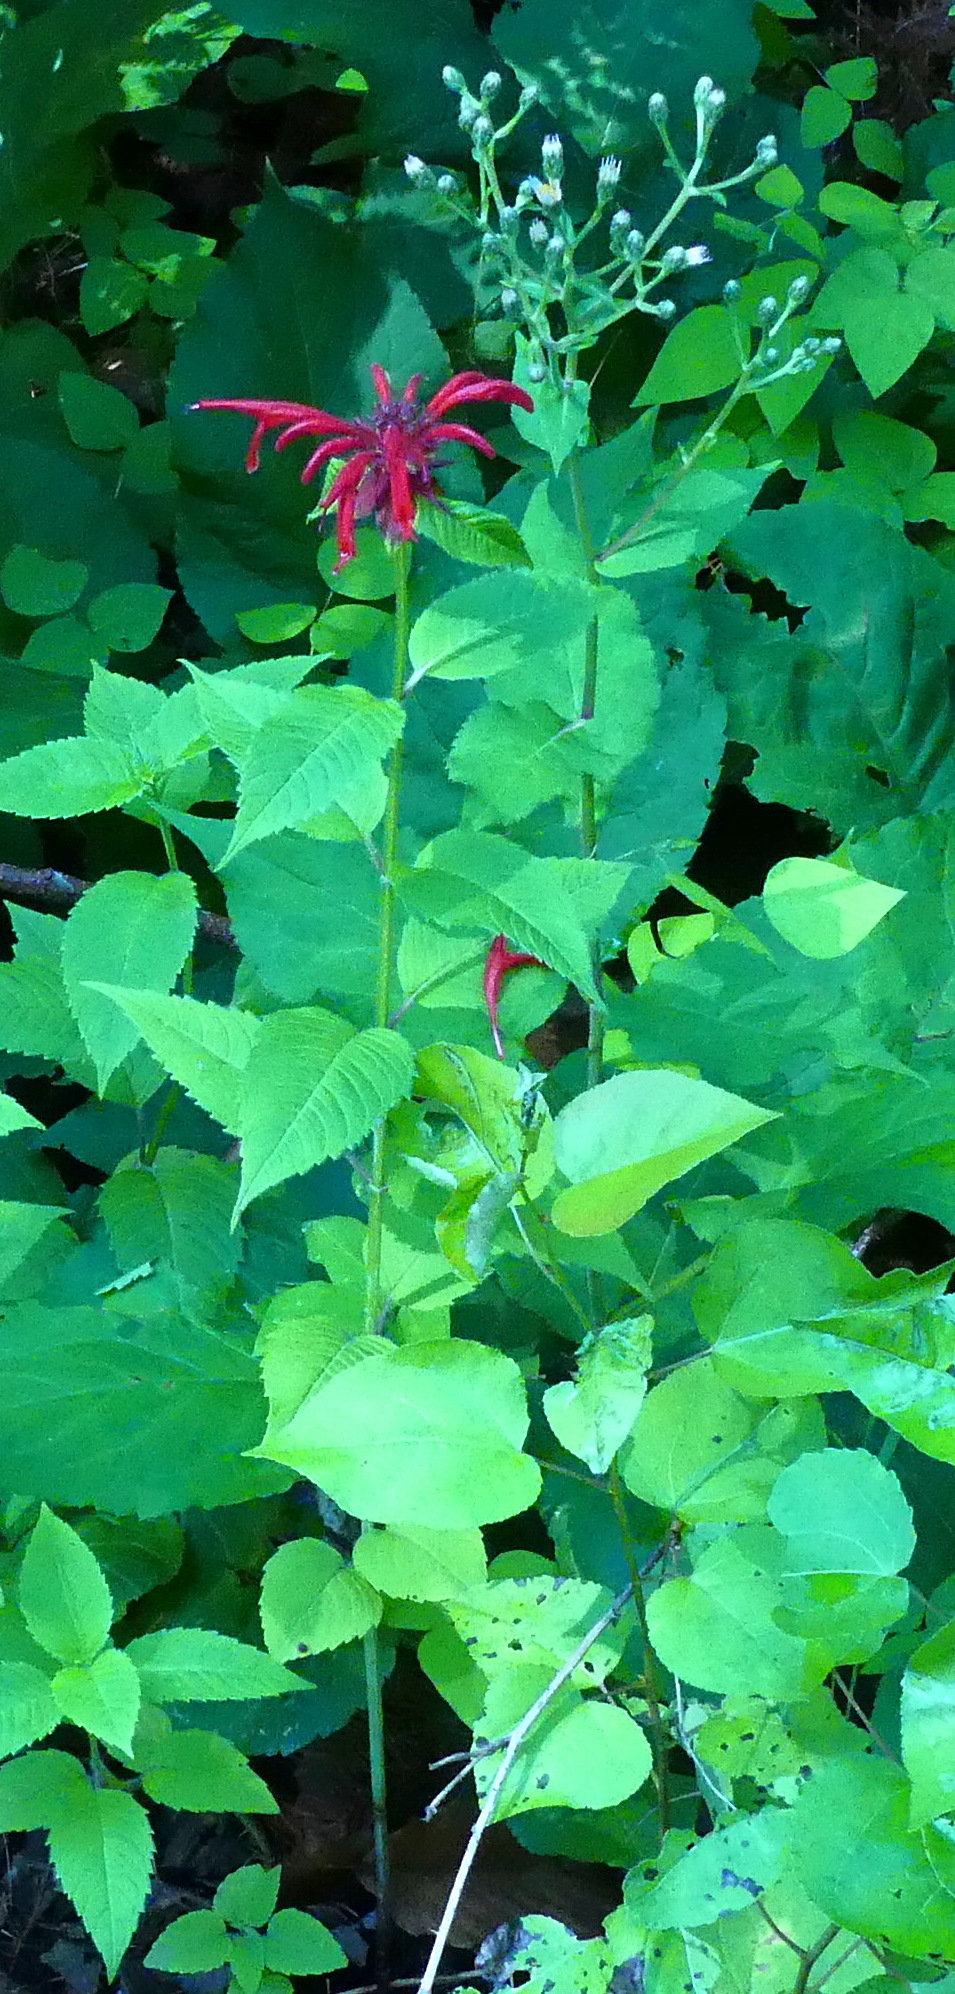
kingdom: Plantae
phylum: Tracheophyta
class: Magnoliopsida
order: Lamiales
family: Lamiaceae
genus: Monarda
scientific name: Monarda didyma
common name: Beebalm
